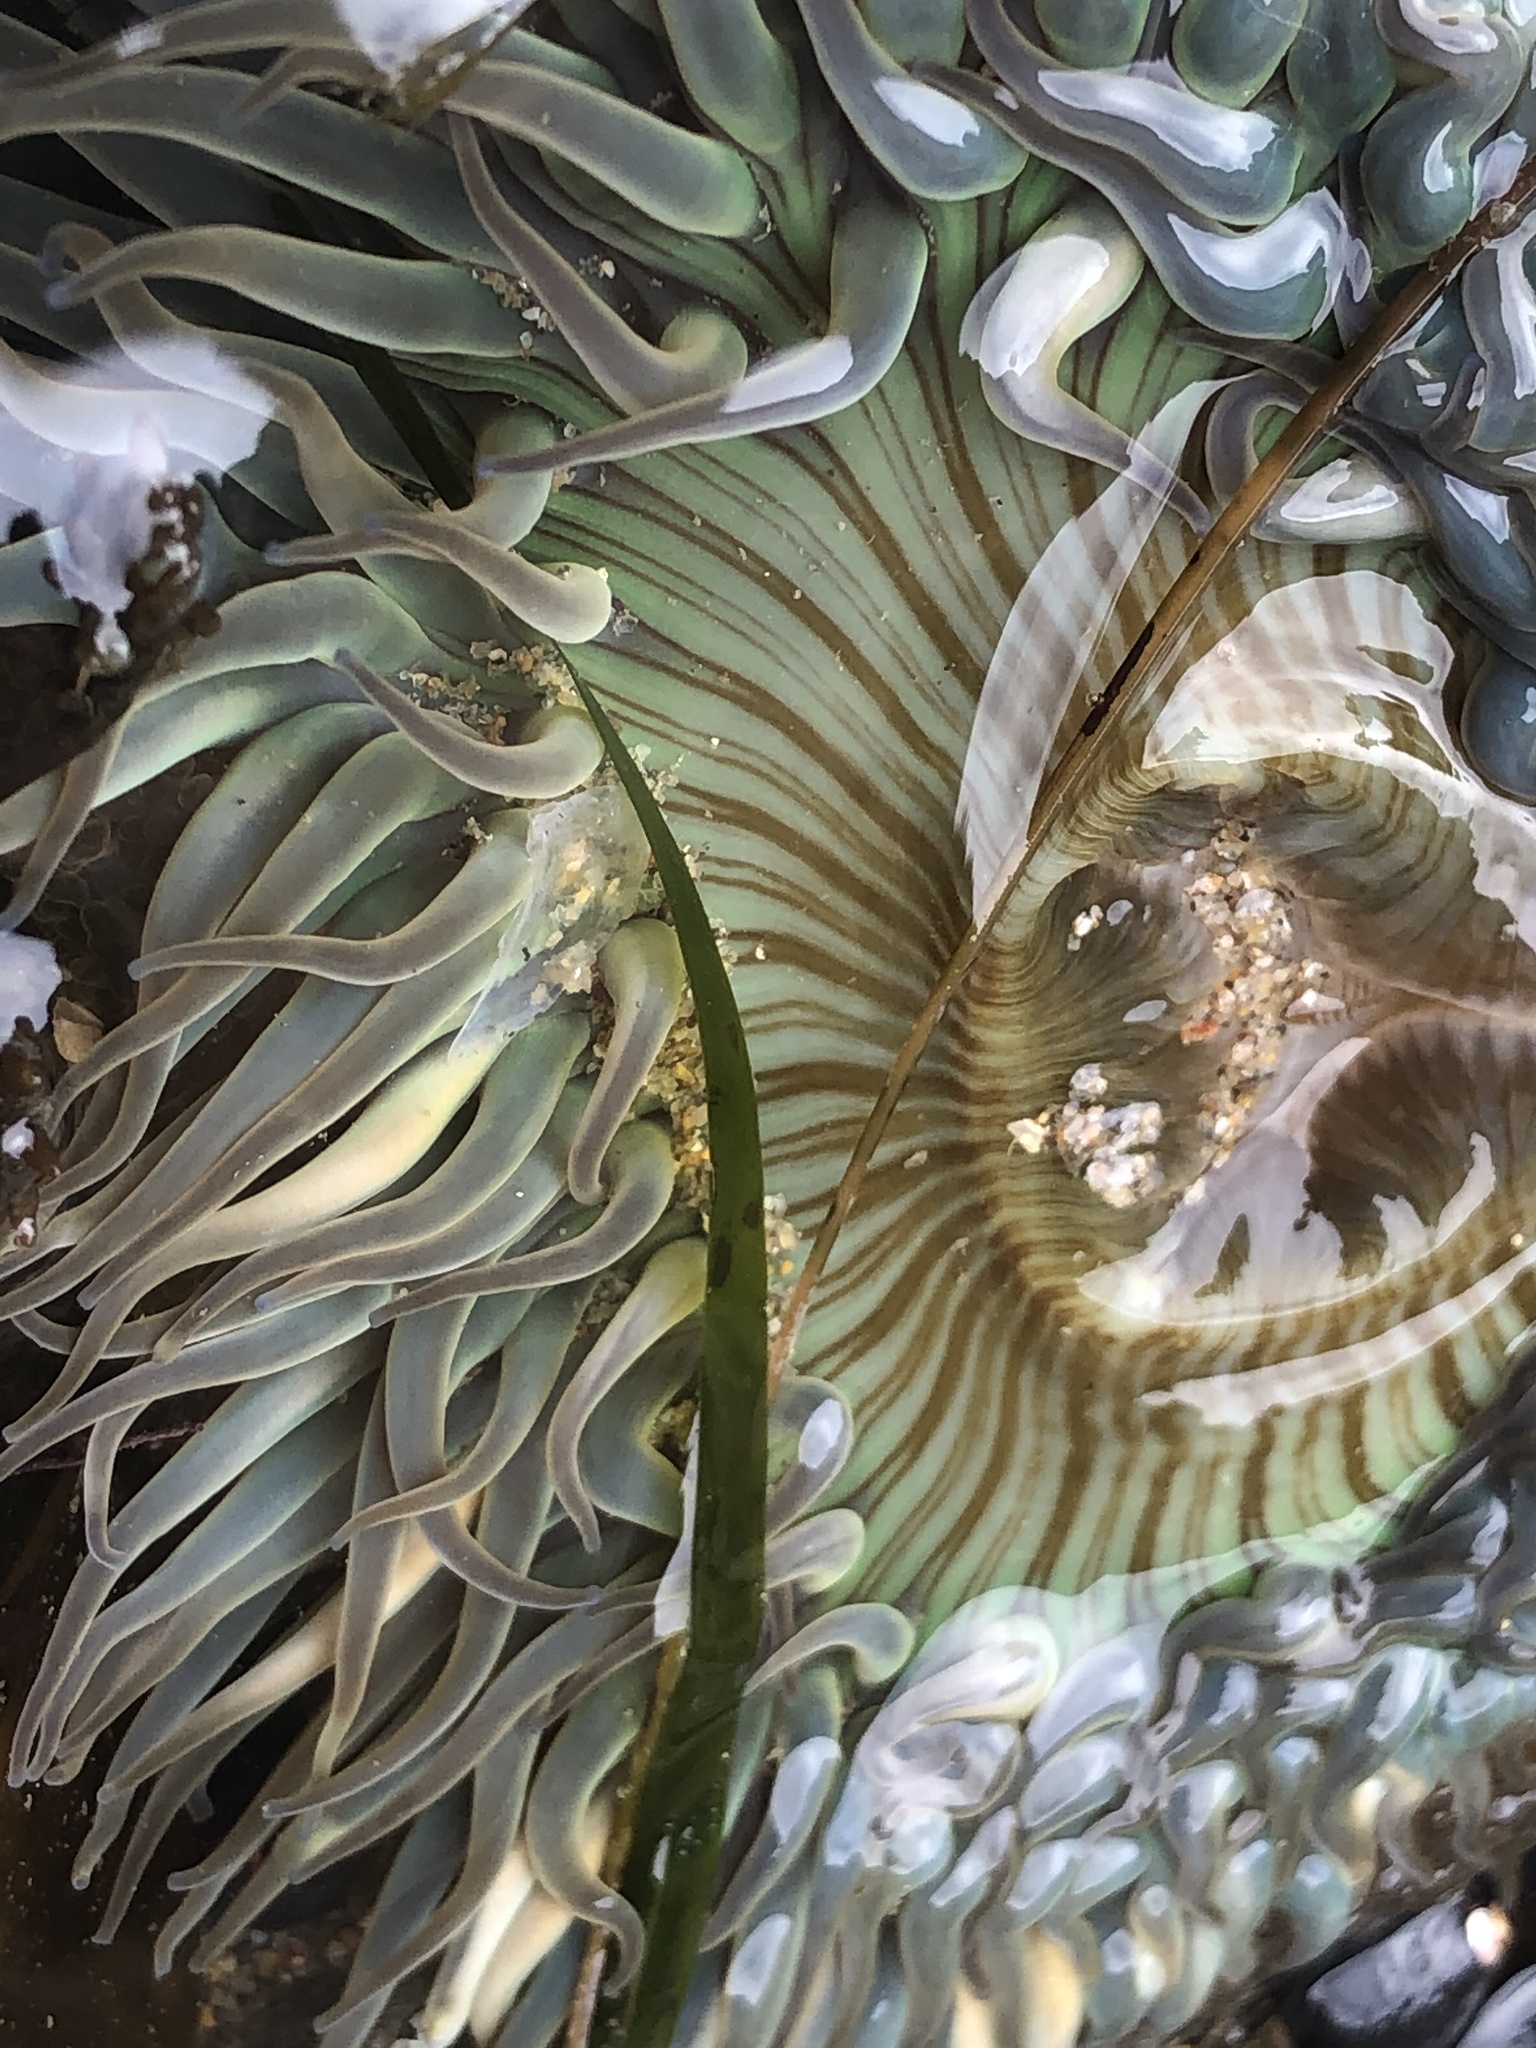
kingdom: Animalia
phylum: Cnidaria
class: Anthozoa
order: Actiniaria
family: Actiniidae
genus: Anthopleura
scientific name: Anthopleura sola
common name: Sun anemone
